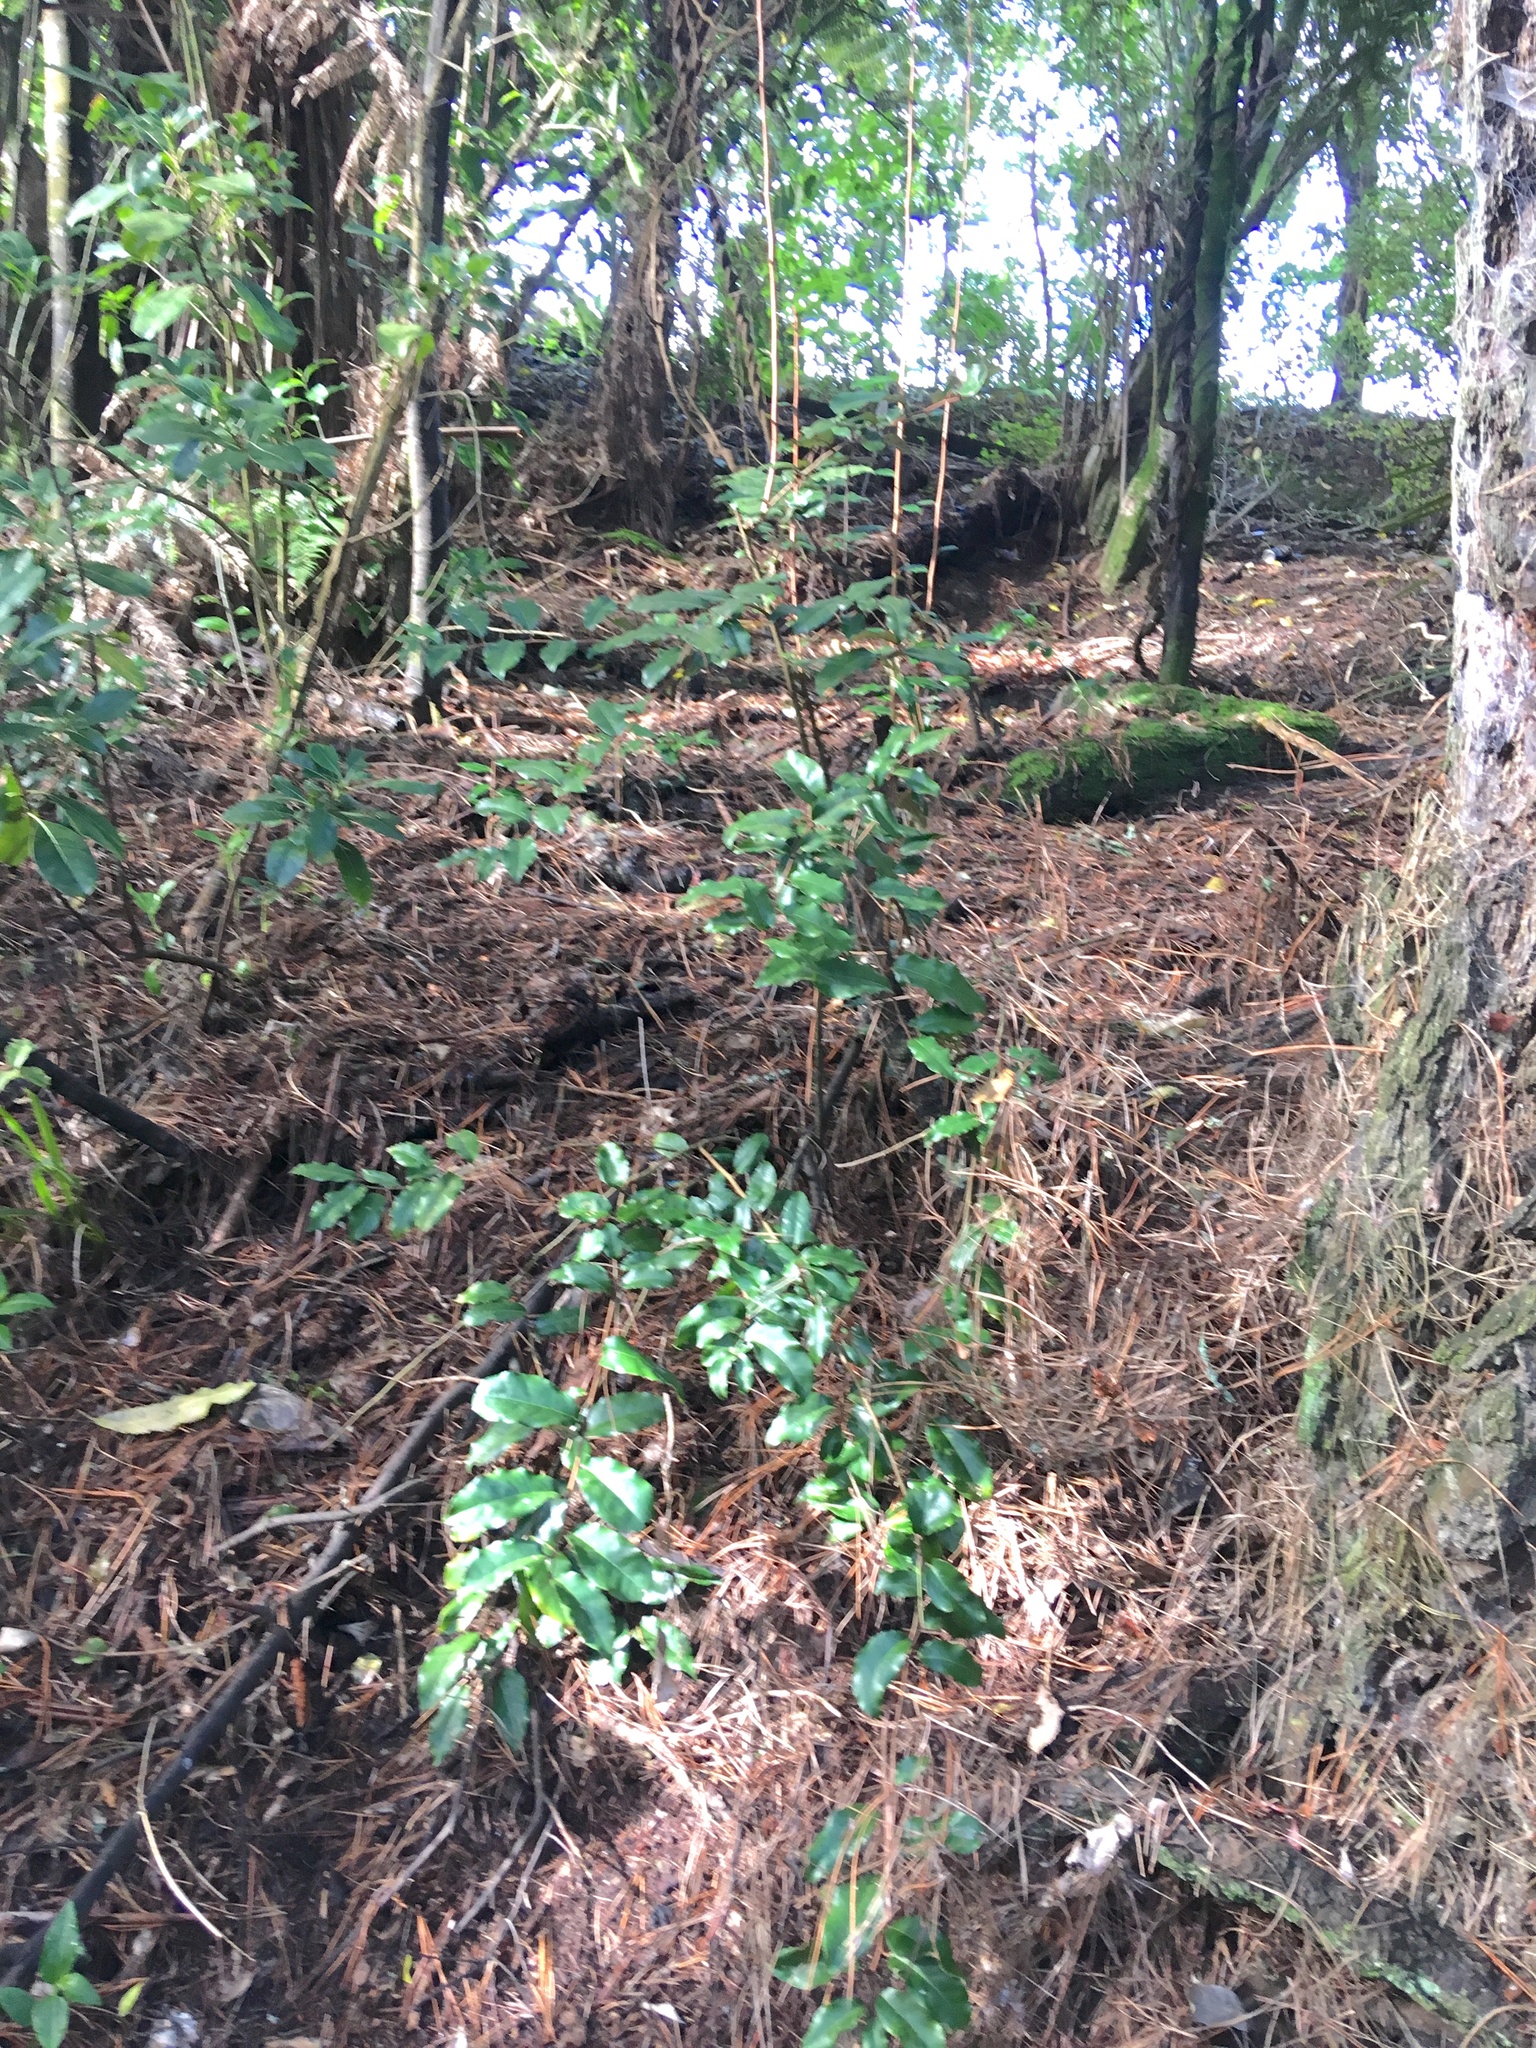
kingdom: Plantae
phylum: Tracheophyta
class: Magnoliopsida
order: Rosales
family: Elaeagnaceae
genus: Elaeagnus
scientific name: Elaeagnus reflexa
